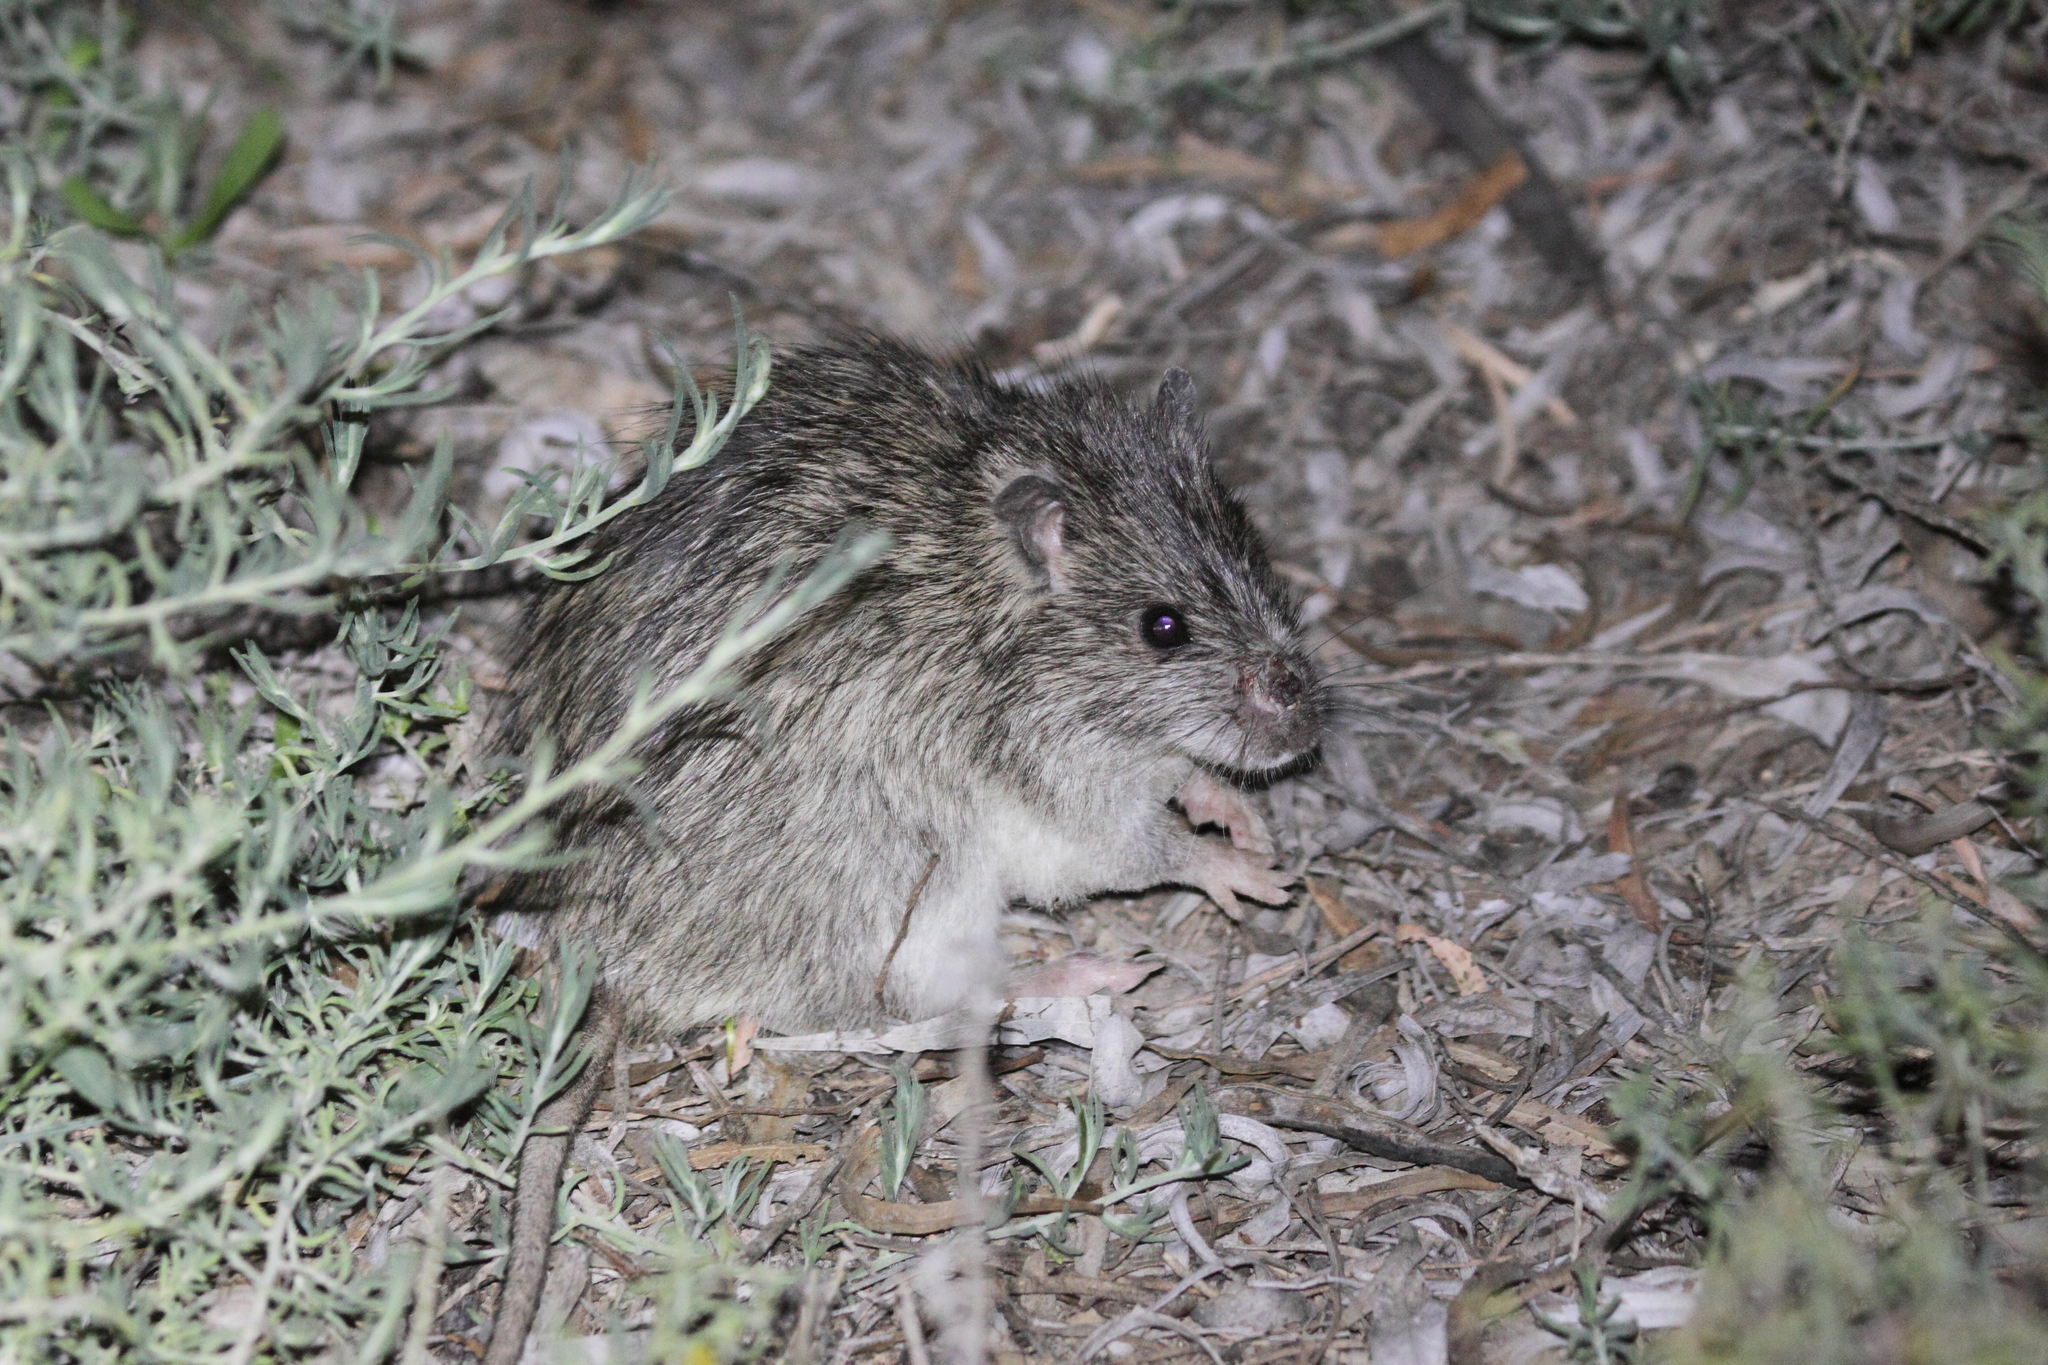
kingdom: Animalia
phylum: Chordata
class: Mammalia
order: Rodentia
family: Muridae
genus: Rattus
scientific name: Rattus villosissimus
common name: Australian long-haired rat
